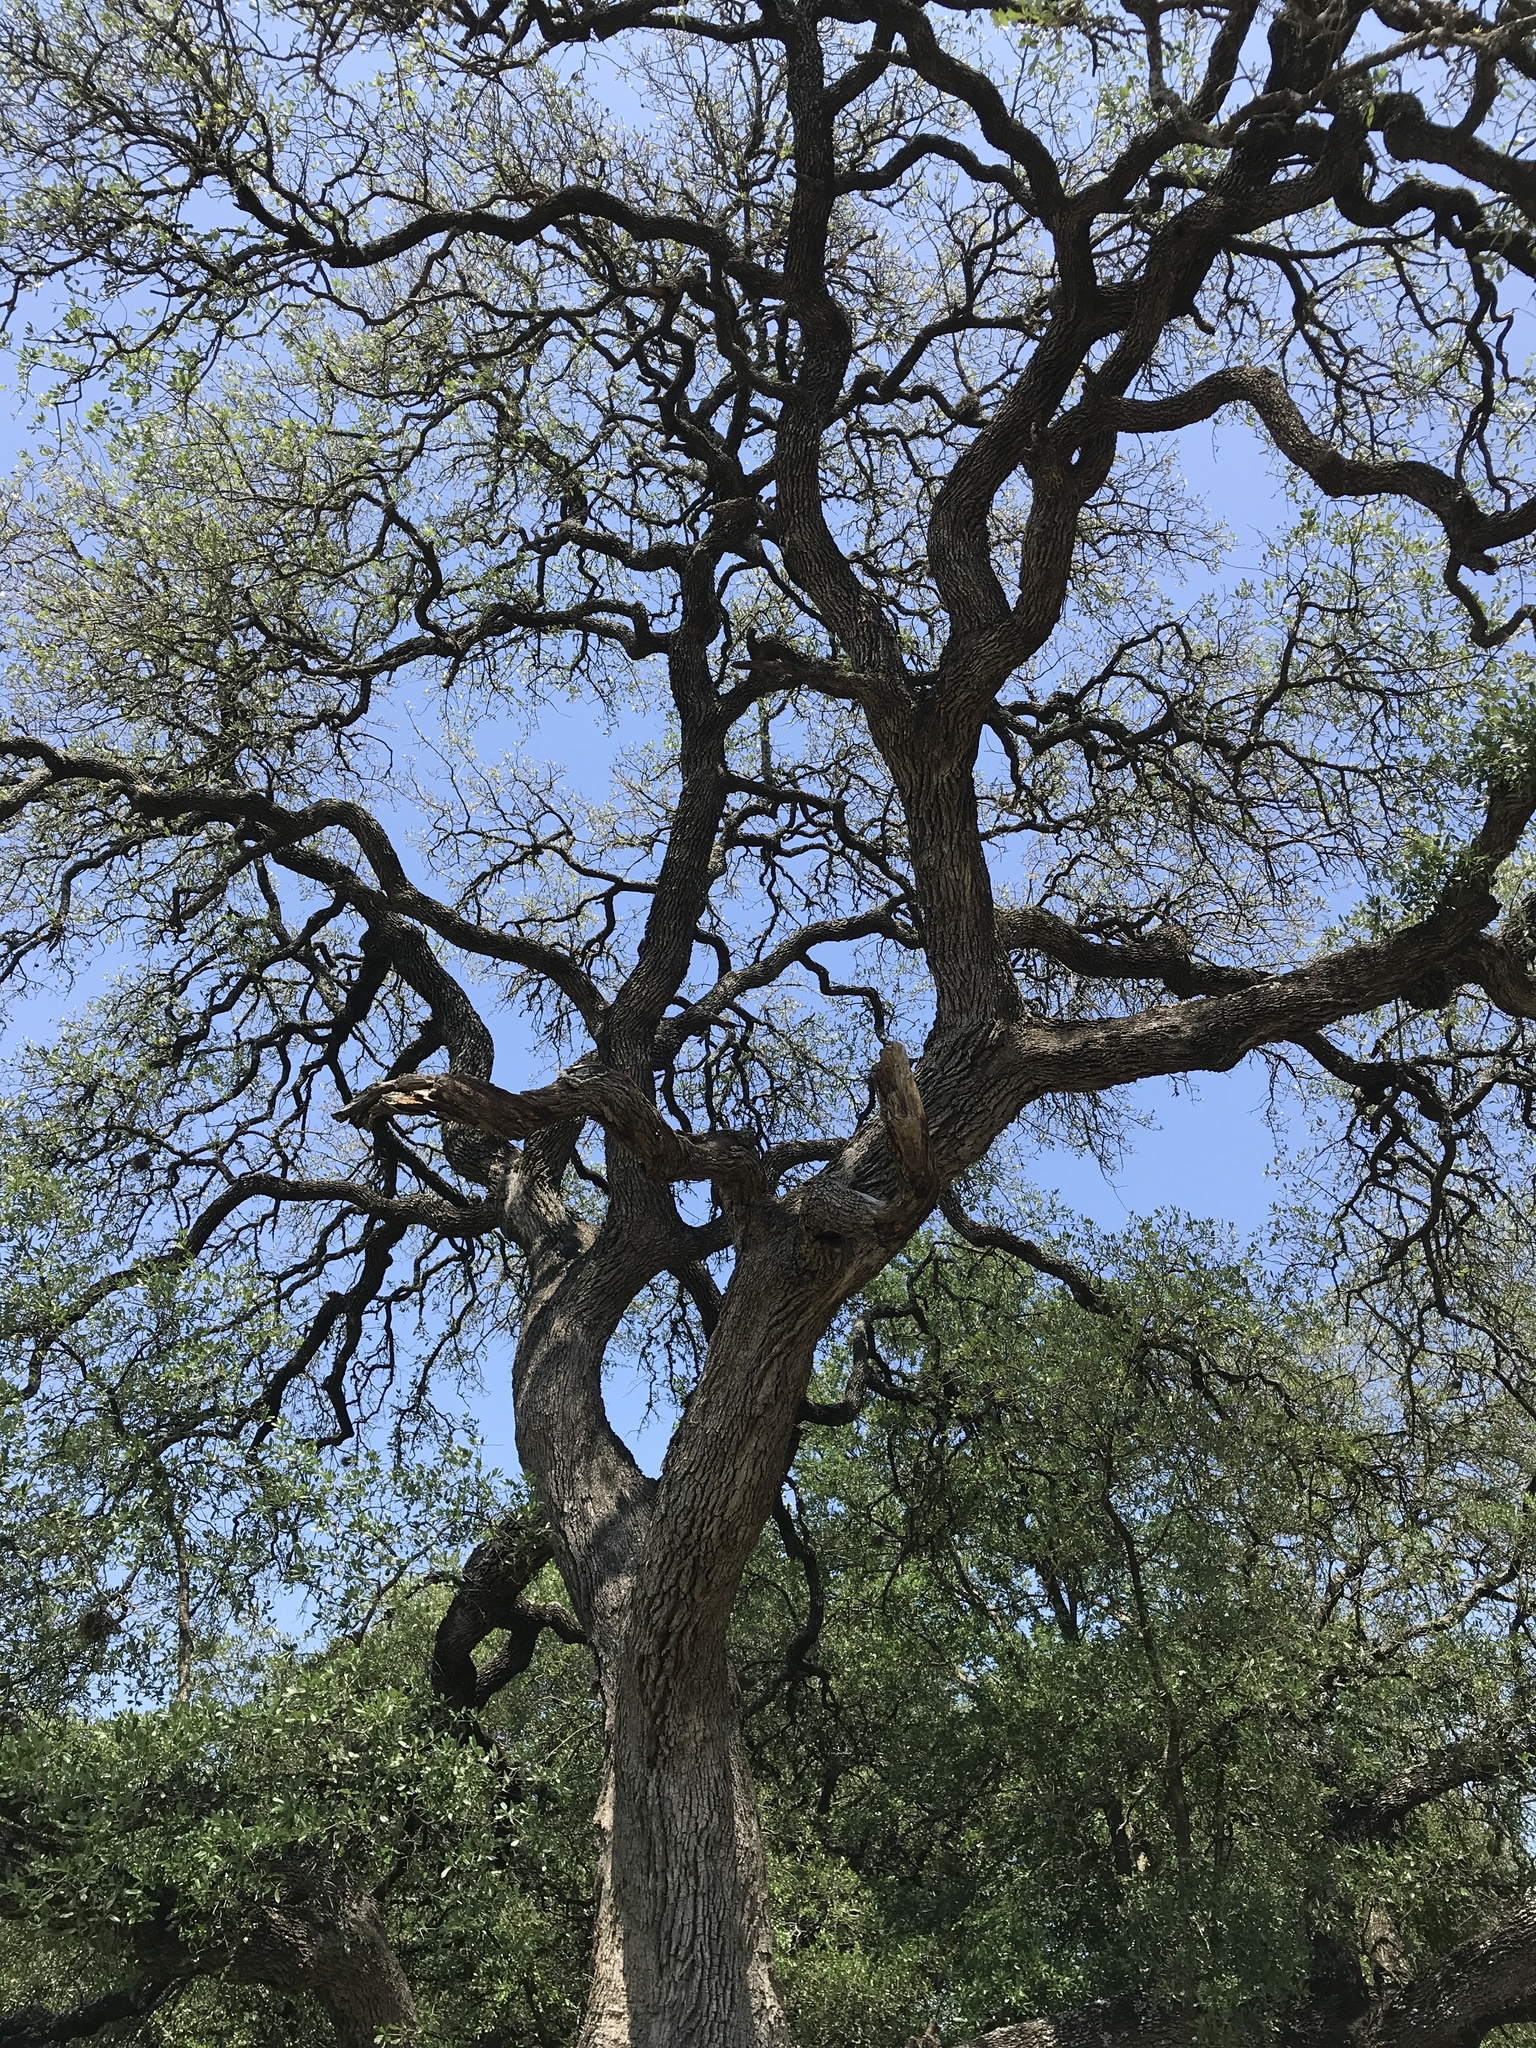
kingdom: Plantae
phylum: Tracheophyta
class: Magnoliopsida
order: Fagales
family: Fagaceae
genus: Quercus
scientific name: Quercus fusiformis
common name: Texas live oak
